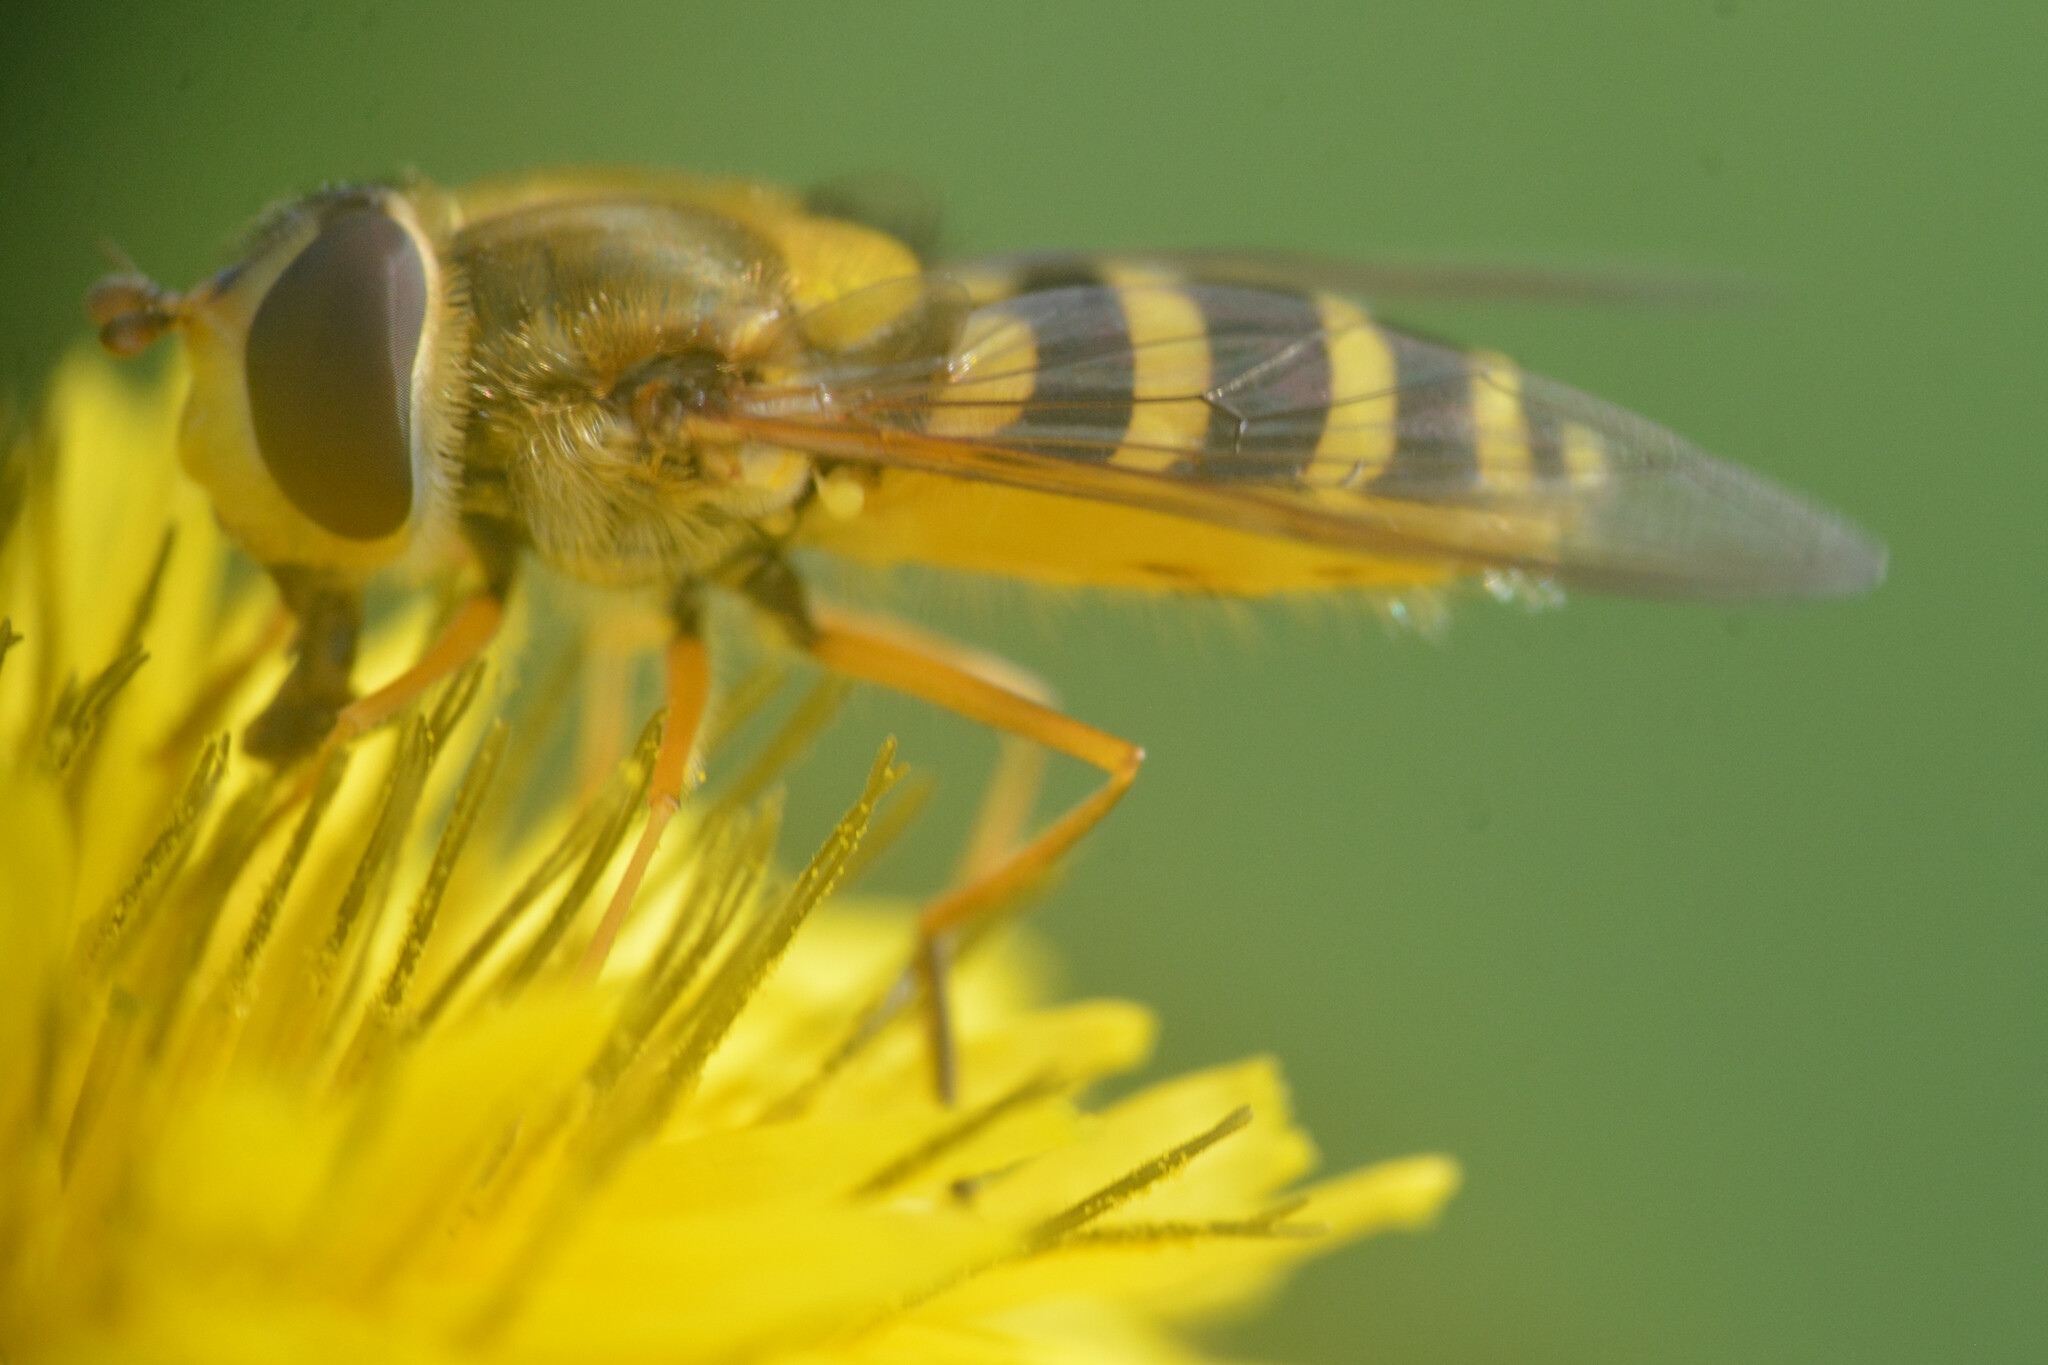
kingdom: Animalia
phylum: Arthropoda
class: Insecta
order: Diptera
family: Syrphidae
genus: Syrphus
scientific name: Syrphus ribesii
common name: Common flower fly
